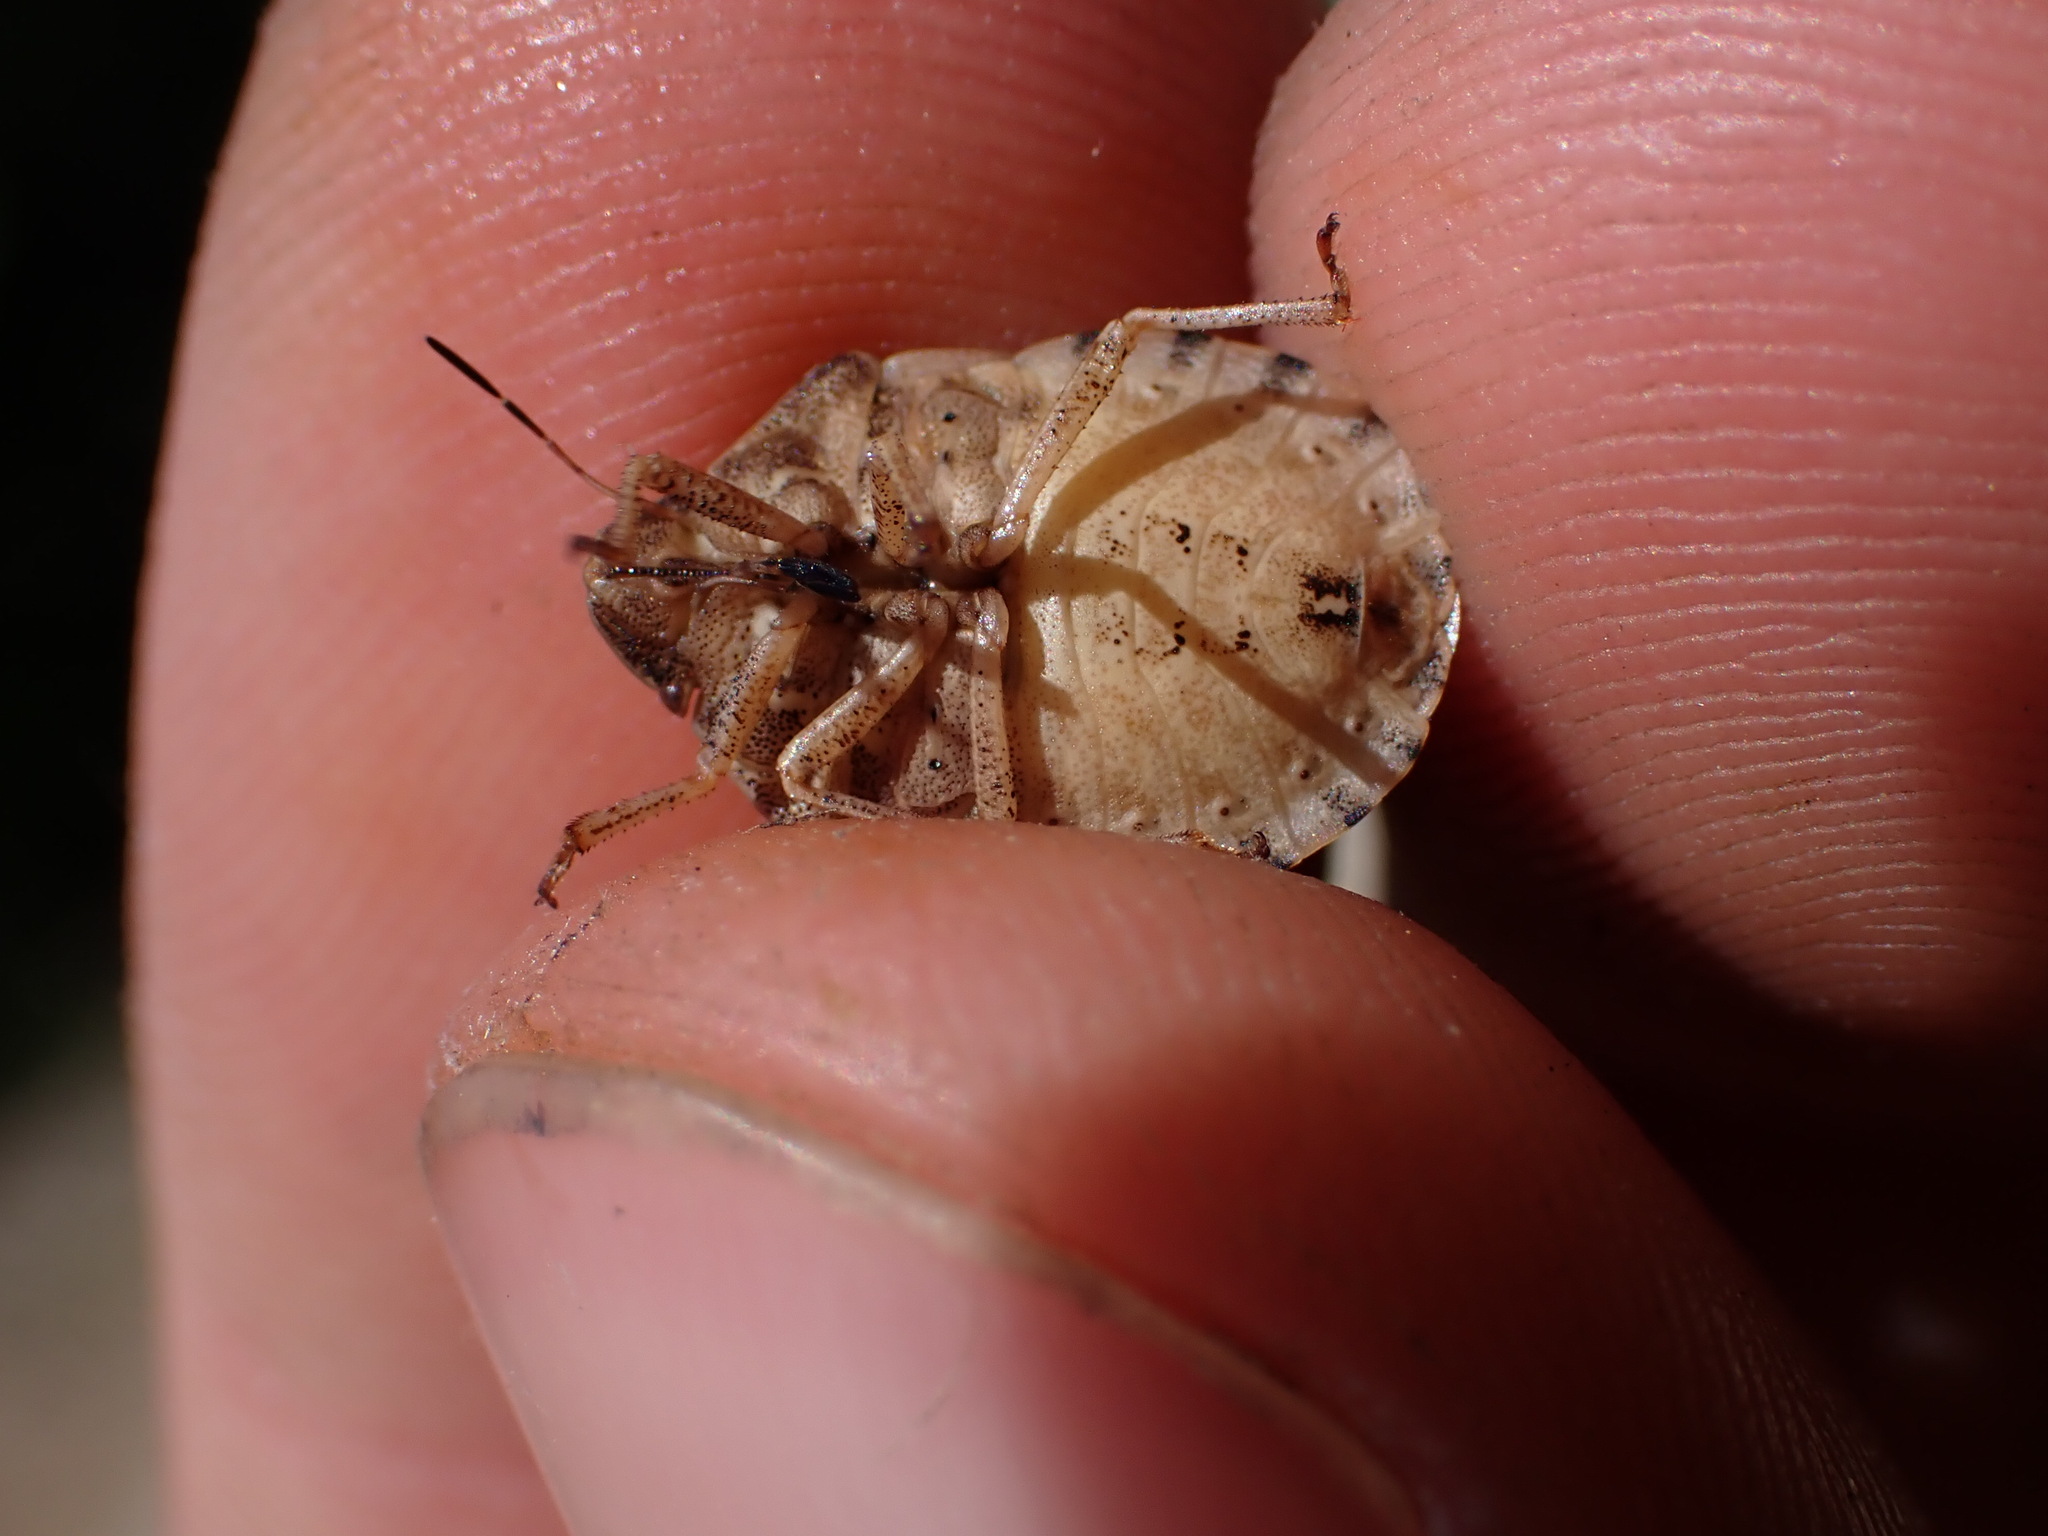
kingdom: Animalia
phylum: Arthropoda
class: Insecta
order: Hemiptera
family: Scutelleridae
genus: Eurygaster
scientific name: Eurygaster maura
